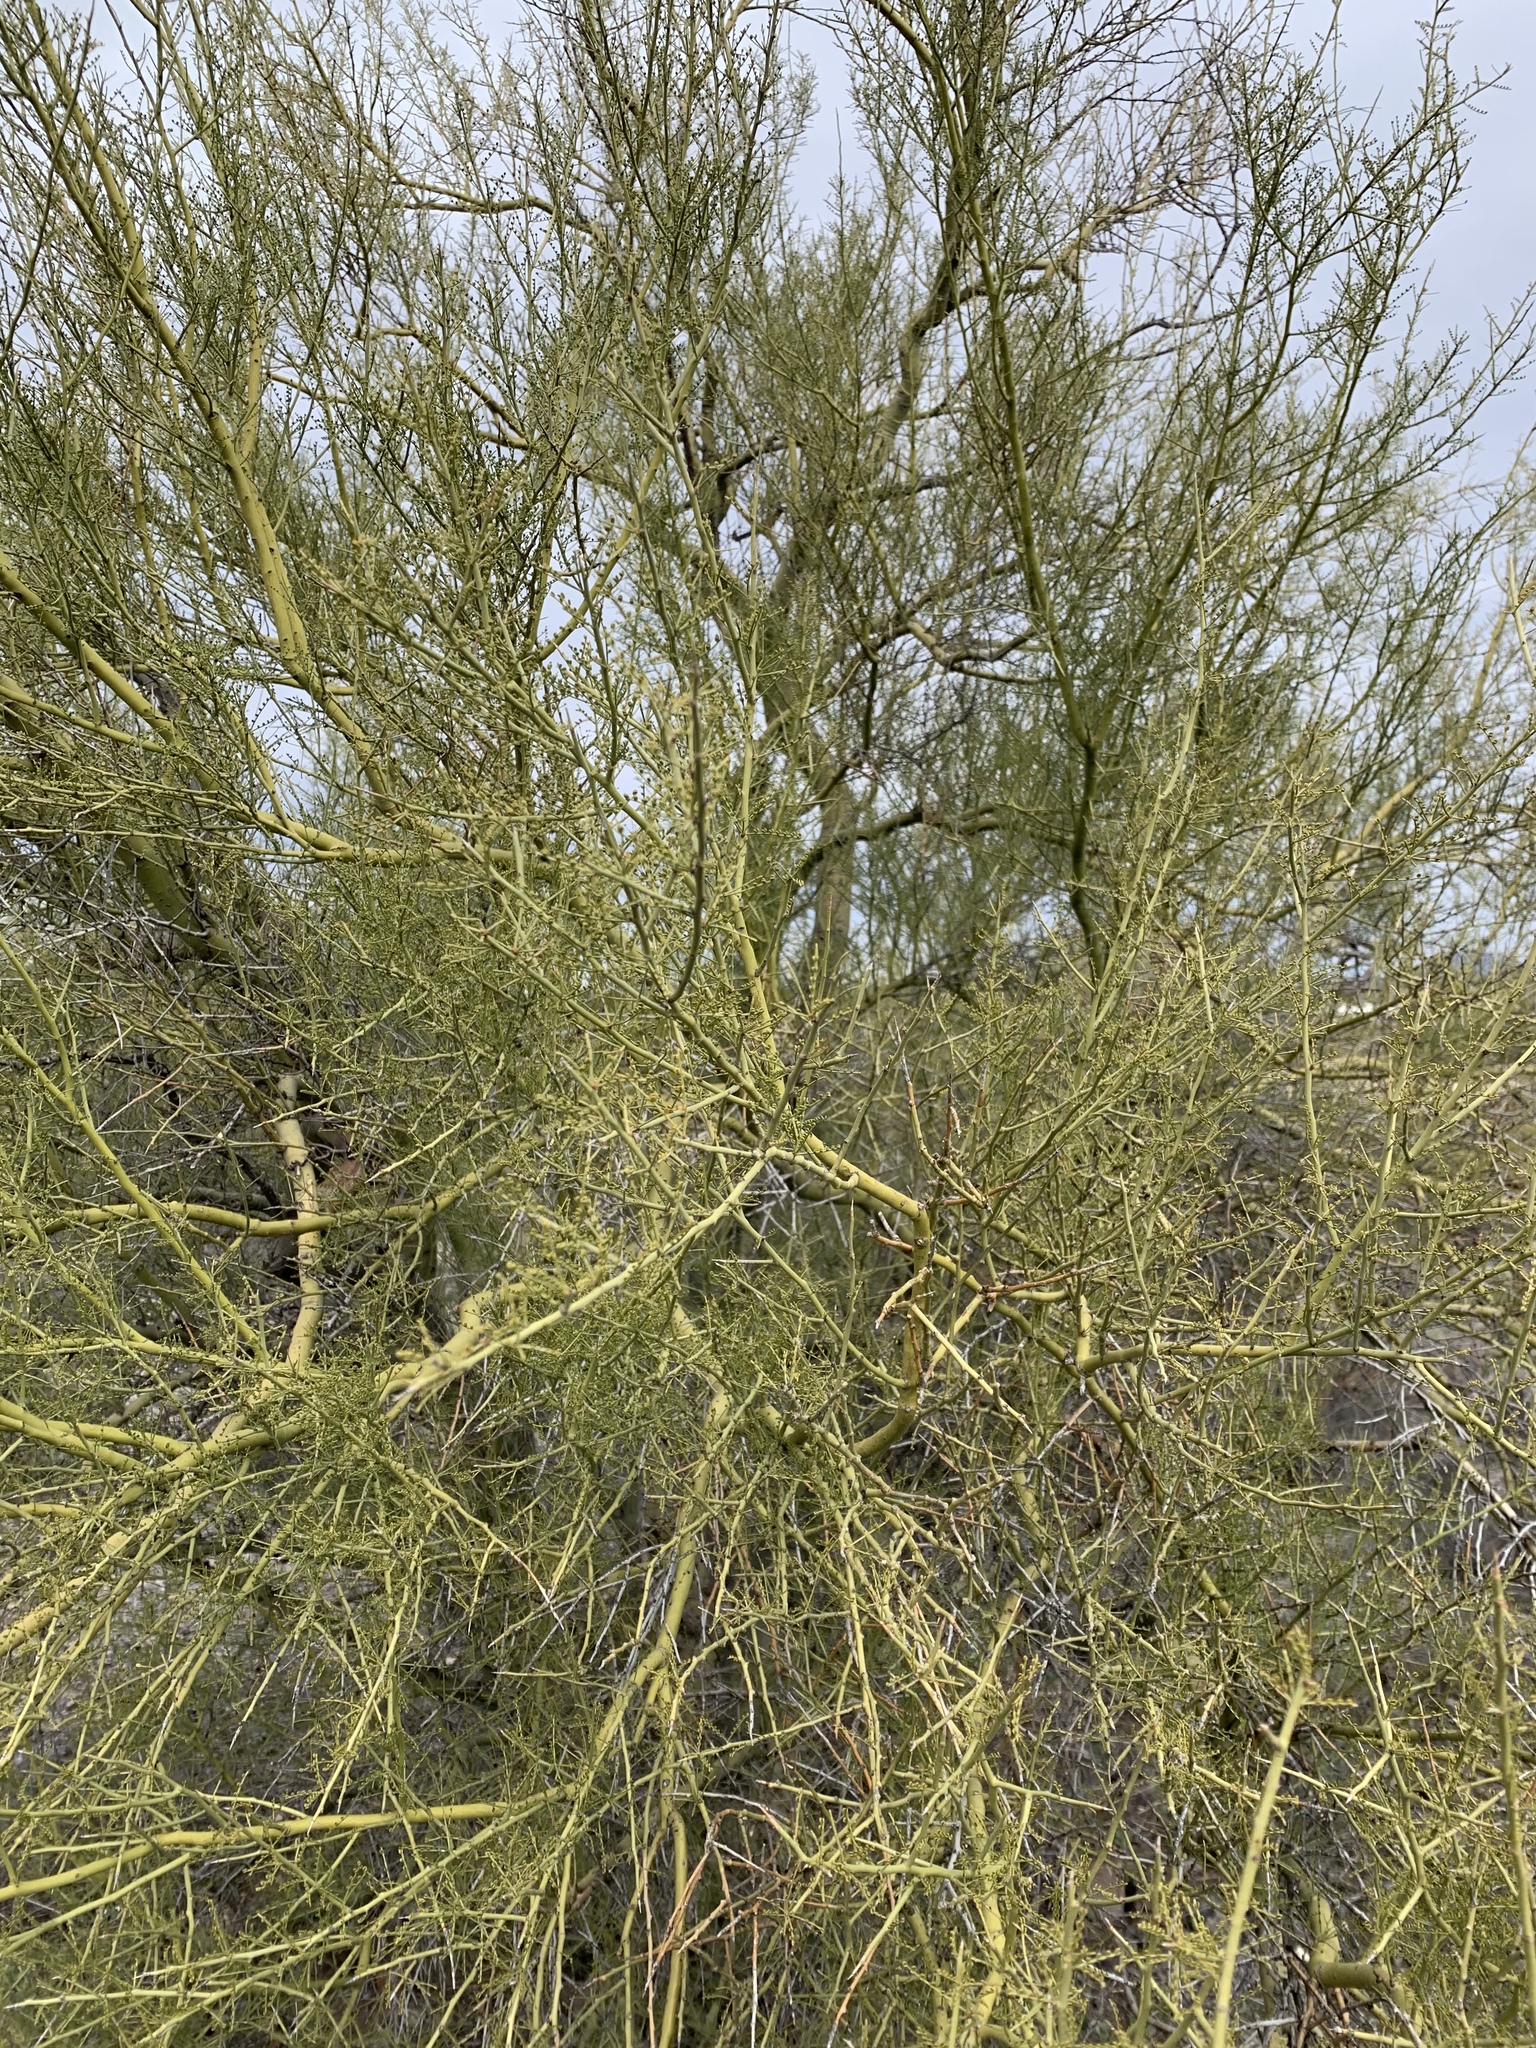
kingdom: Plantae
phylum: Tracheophyta
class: Magnoliopsida
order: Fabales
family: Fabaceae
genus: Parkinsonia
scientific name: Parkinsonia microphylla
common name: Yellow paloverde
